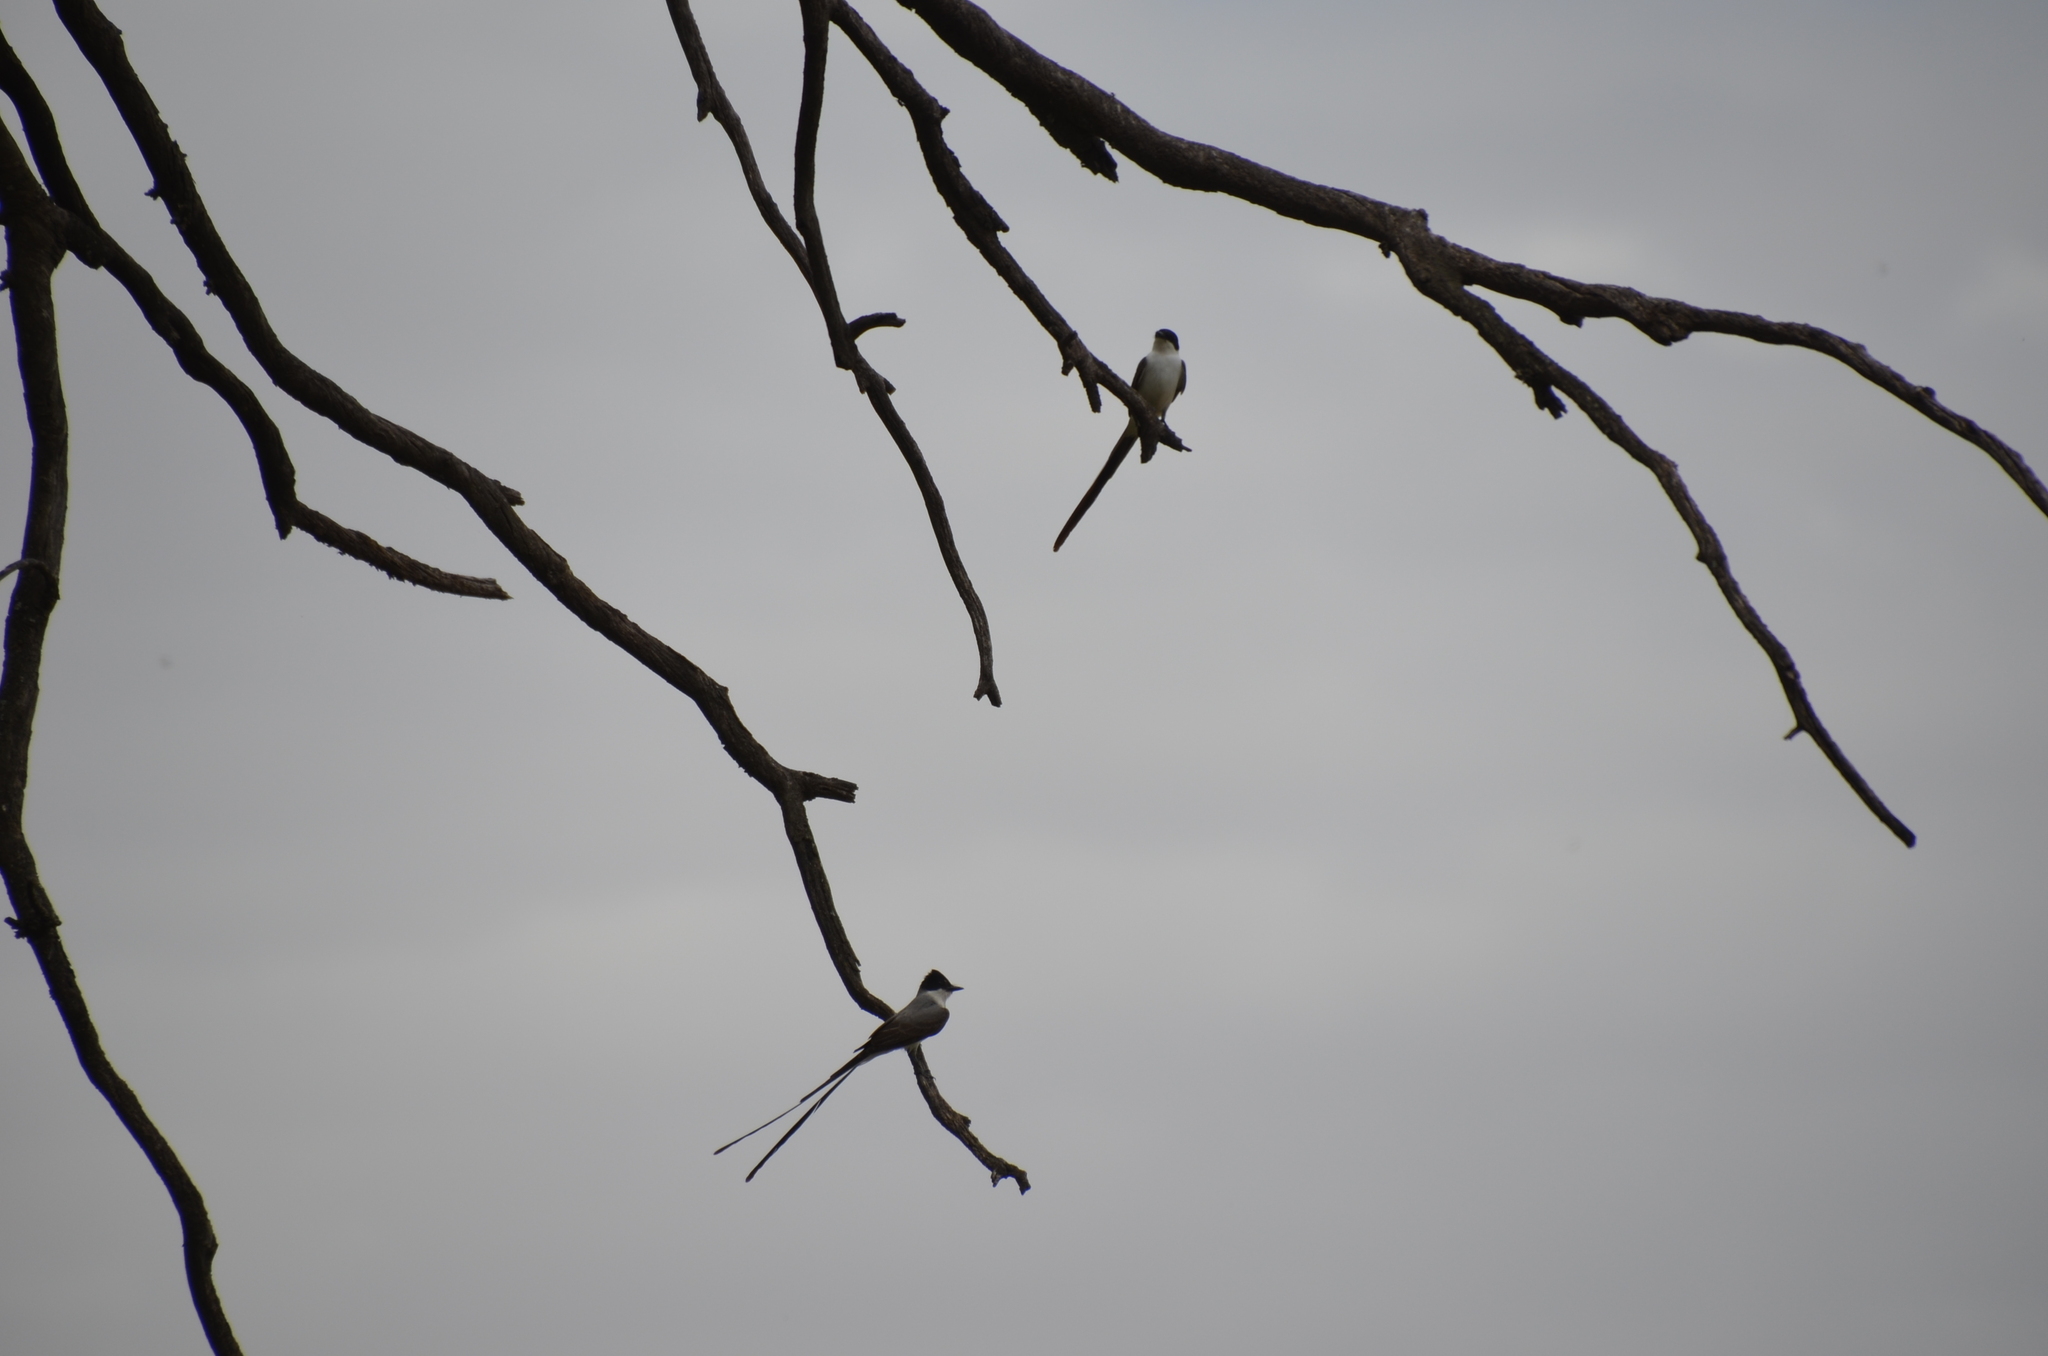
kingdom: Animalia
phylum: Chordata
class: Aves
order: Passeriformes
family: Tyrannidae
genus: Tyrannus
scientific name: Tyrannus savana
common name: Fork-tailed flycatcher
